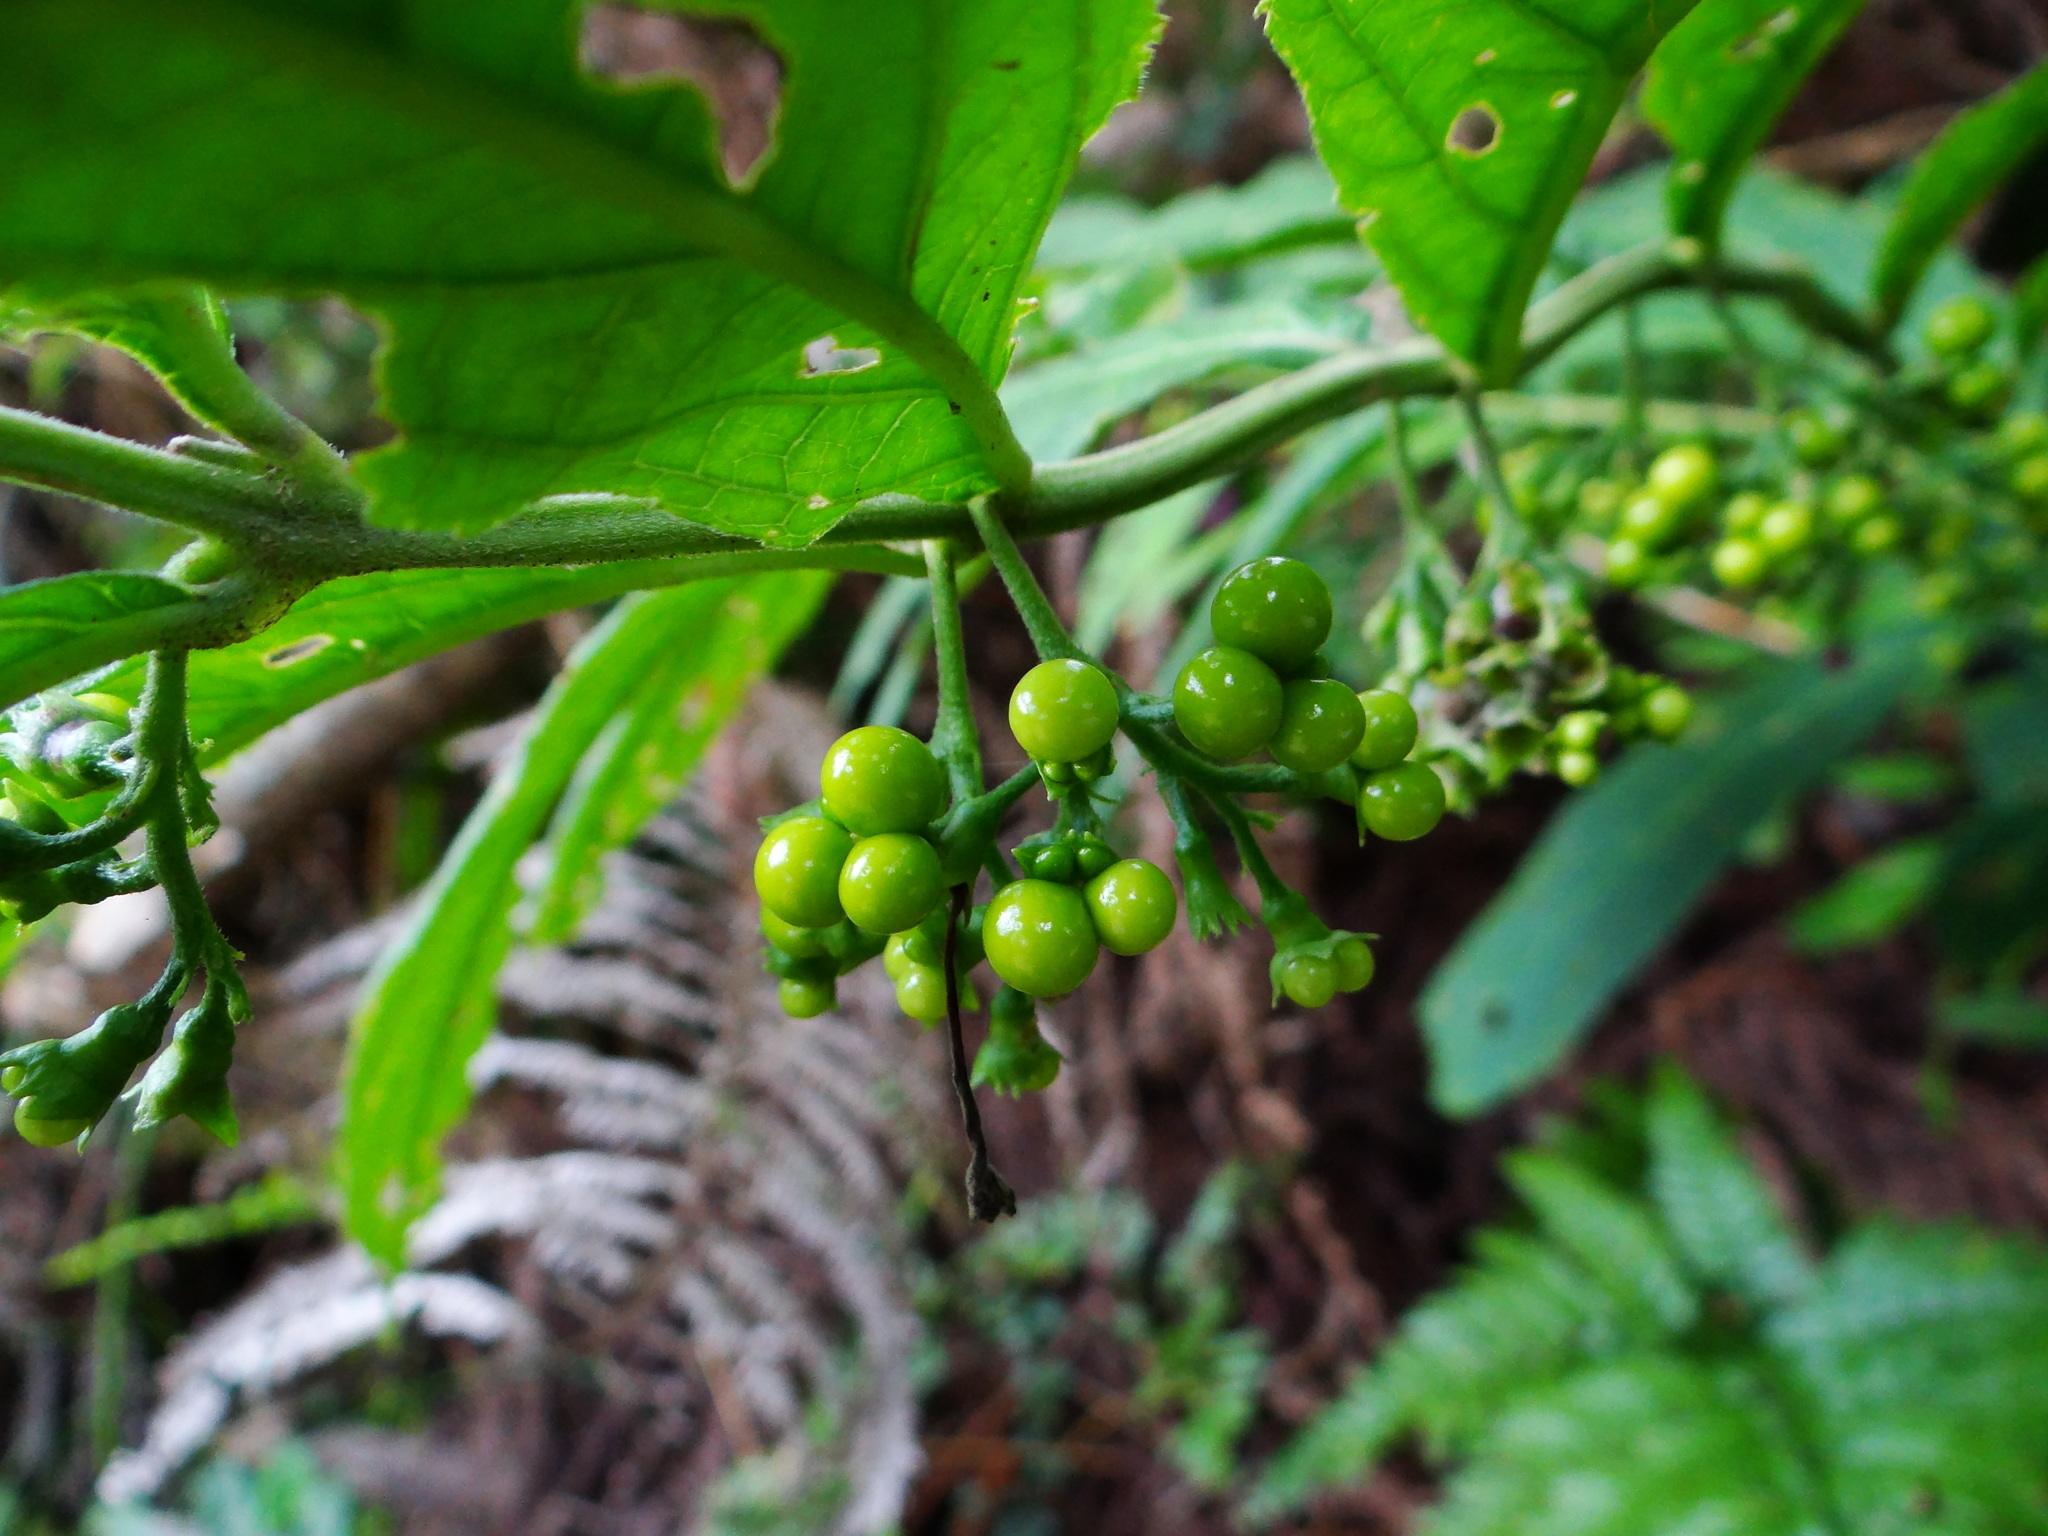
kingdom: Plantae
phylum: Tracheophyta
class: Magnoliopsida
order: Lamiales
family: Lamiaceae
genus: Chelonopsis
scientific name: Chelonopsis deflexa
